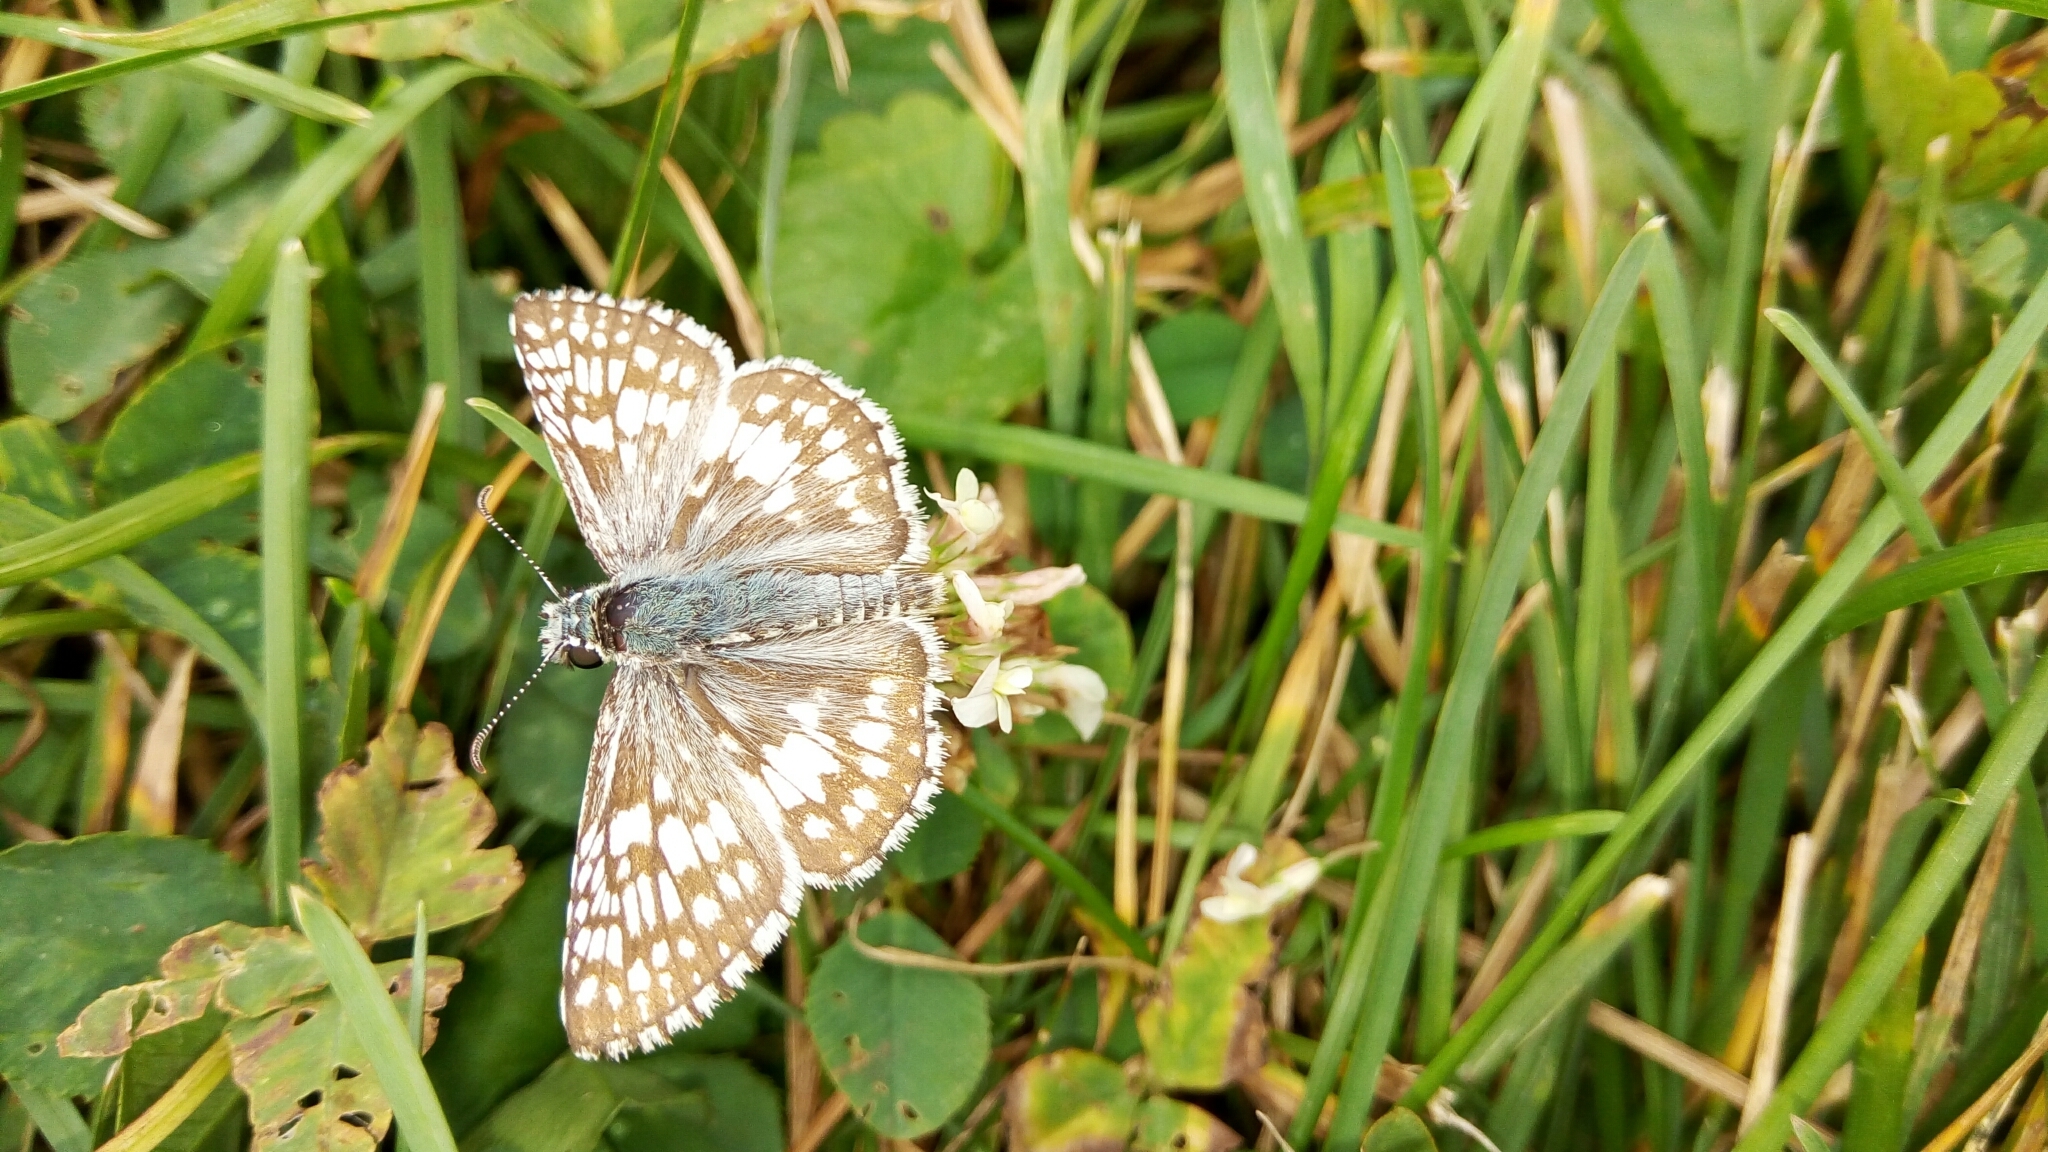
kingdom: Animalia
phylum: Arthropoda
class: Insecta
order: Lepidoptera
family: Hesperiidae
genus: Burnsius
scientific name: Burnsius communis
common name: Common checkered-skipper
